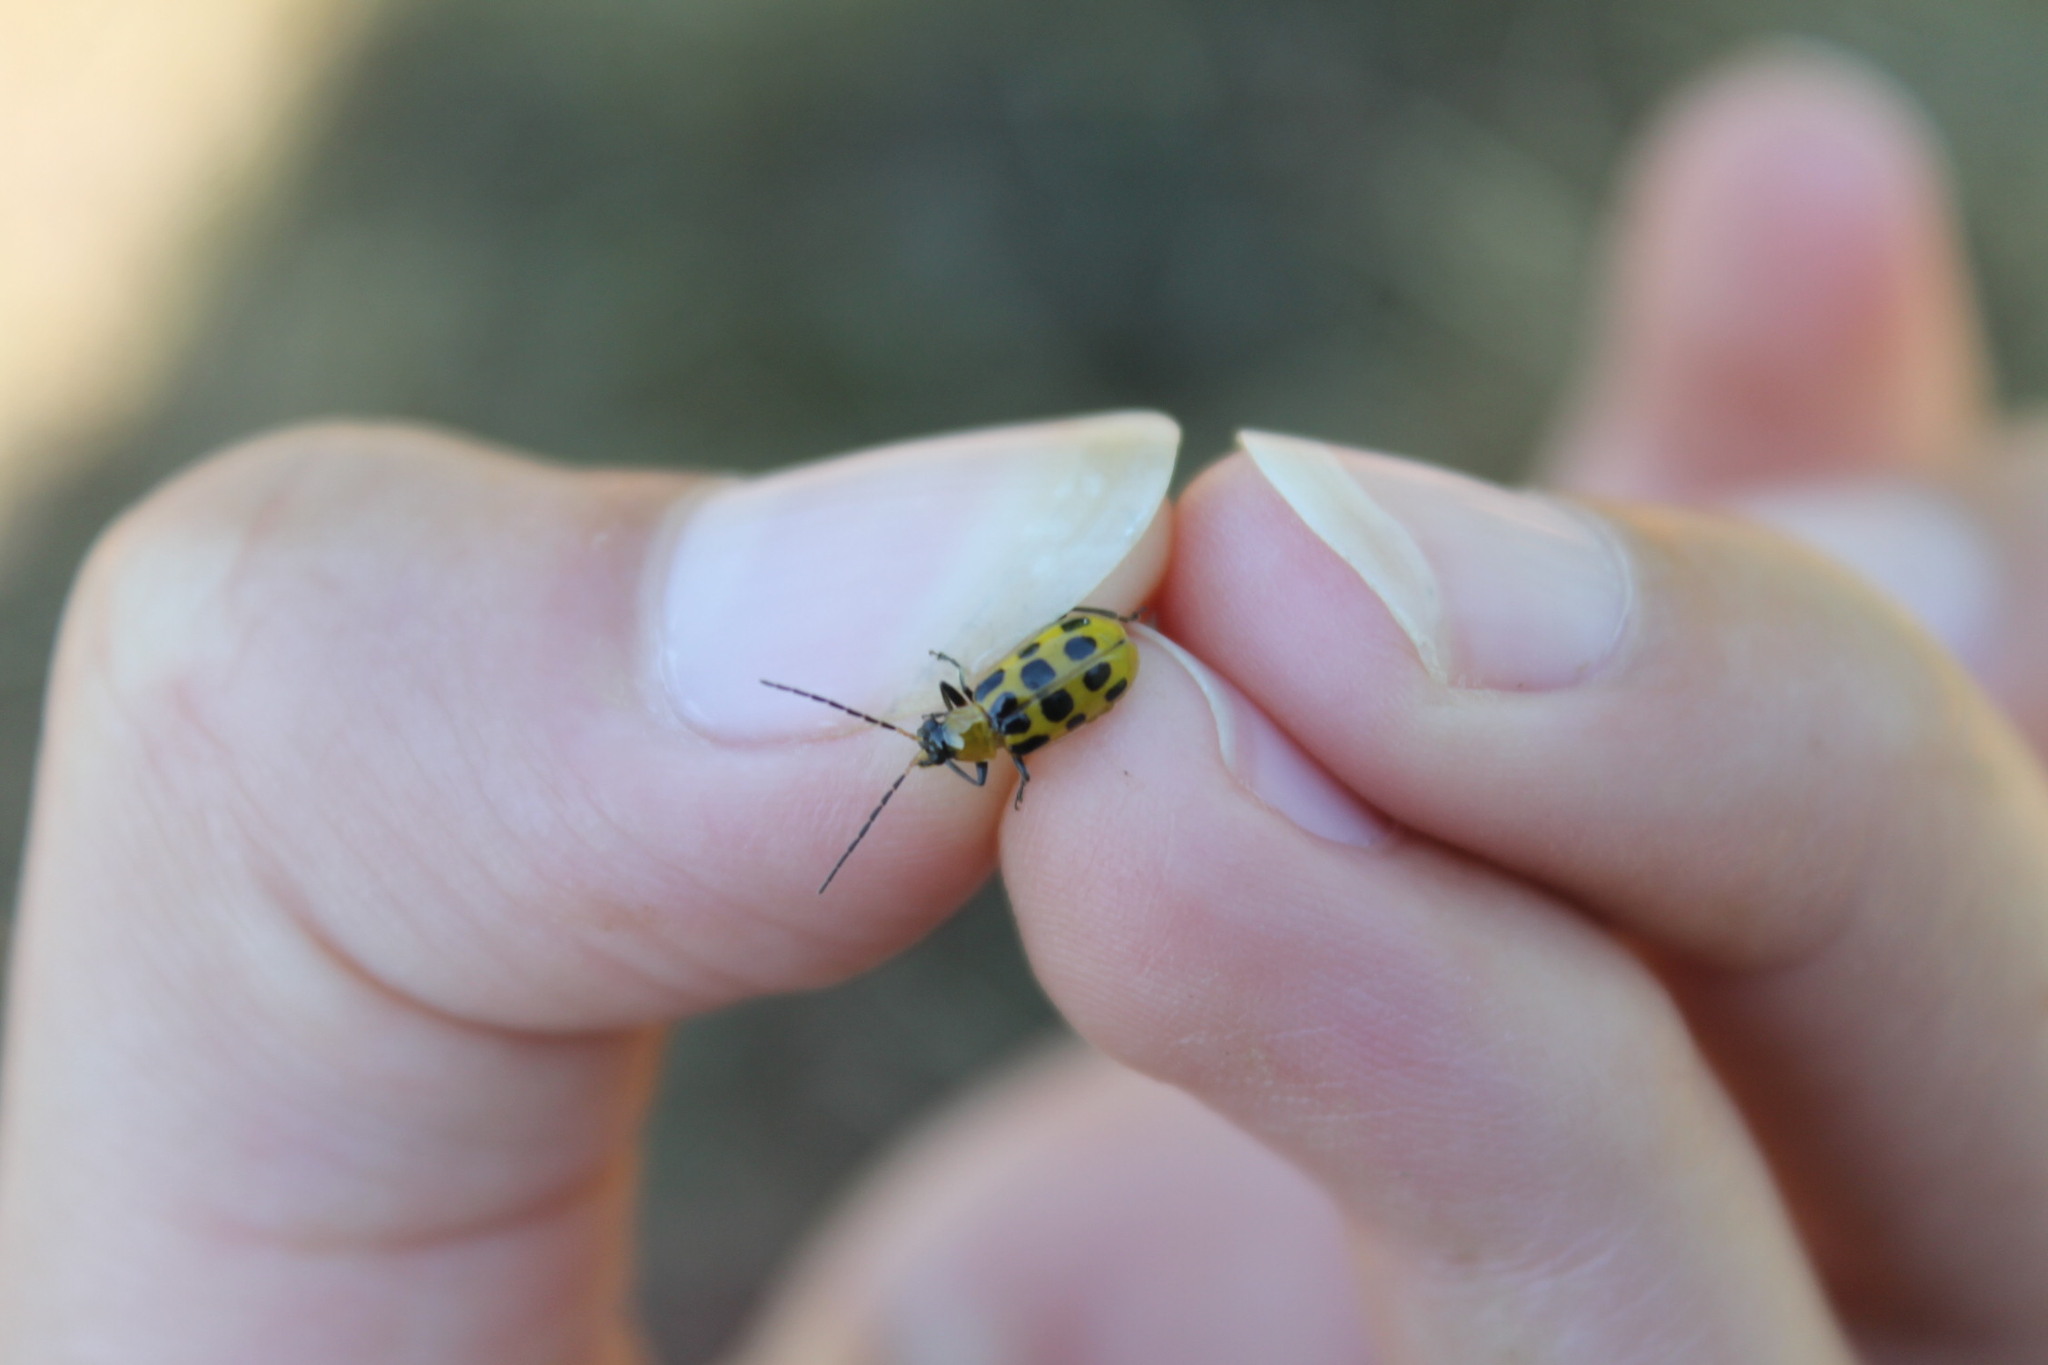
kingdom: Animalia
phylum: Arthropoda
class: Insecta
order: Coleoptera
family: Chrysomelidae
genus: Diabrotica
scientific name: Diabrotica undecimpunctata
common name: Spotted cucumber beetle
